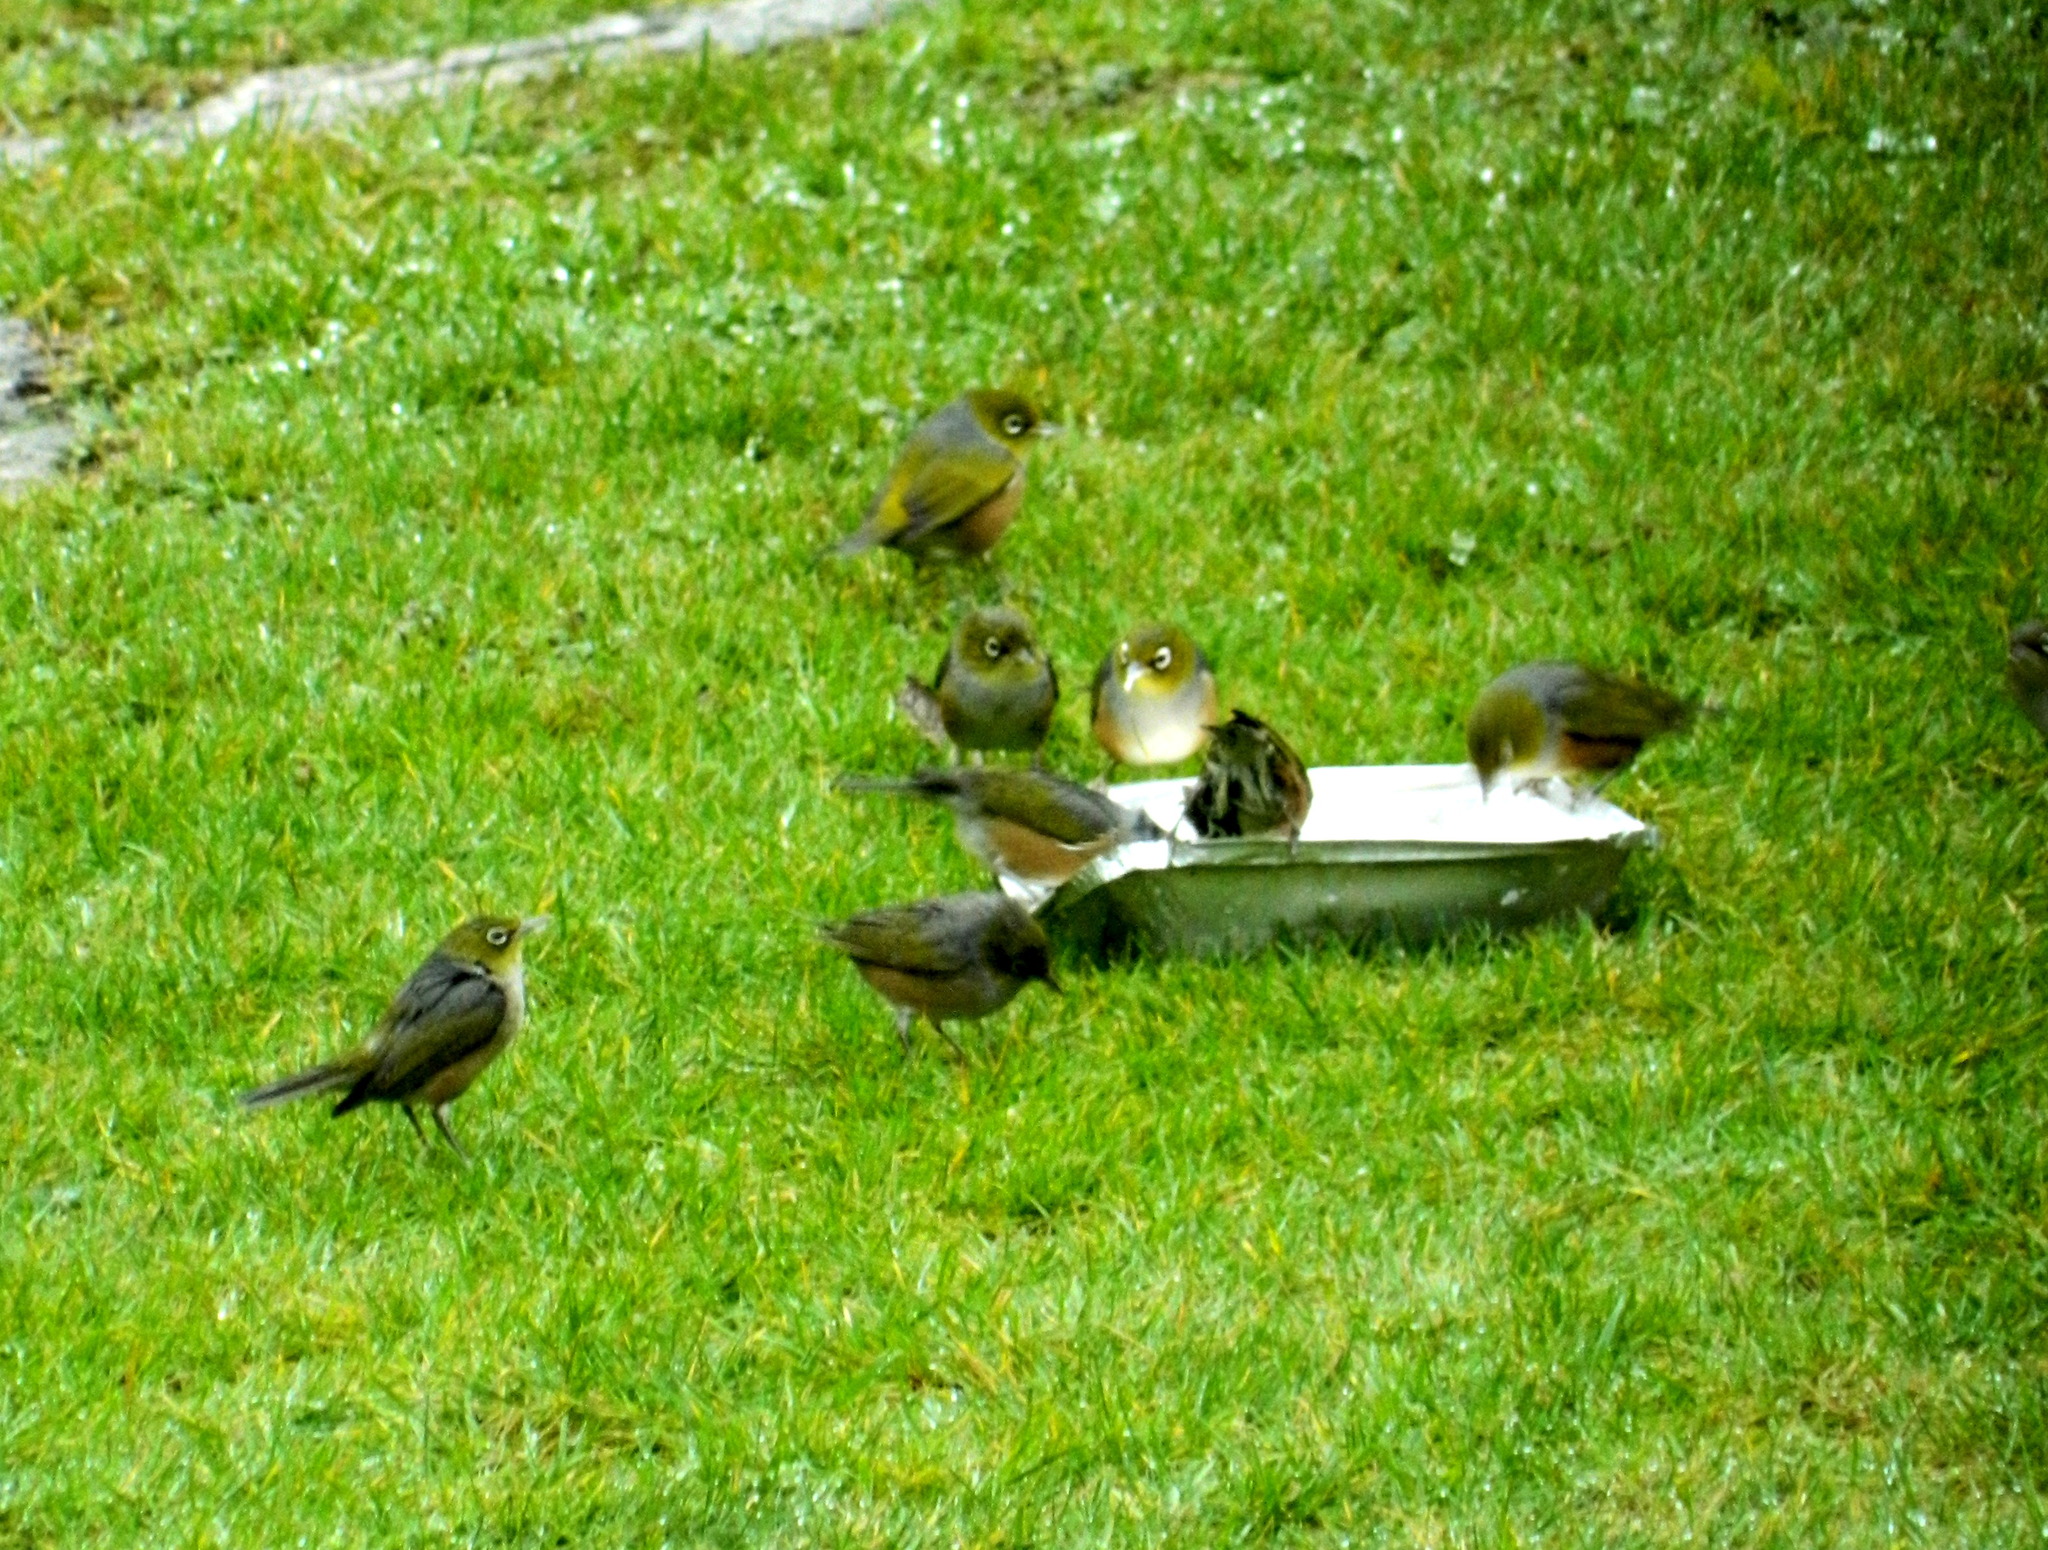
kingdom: Animalia
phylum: Chordata
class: Aves
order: Passeriformes
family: Zosteropidae
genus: Zosterops
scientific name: Zosterops lateralis
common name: Silvereye
